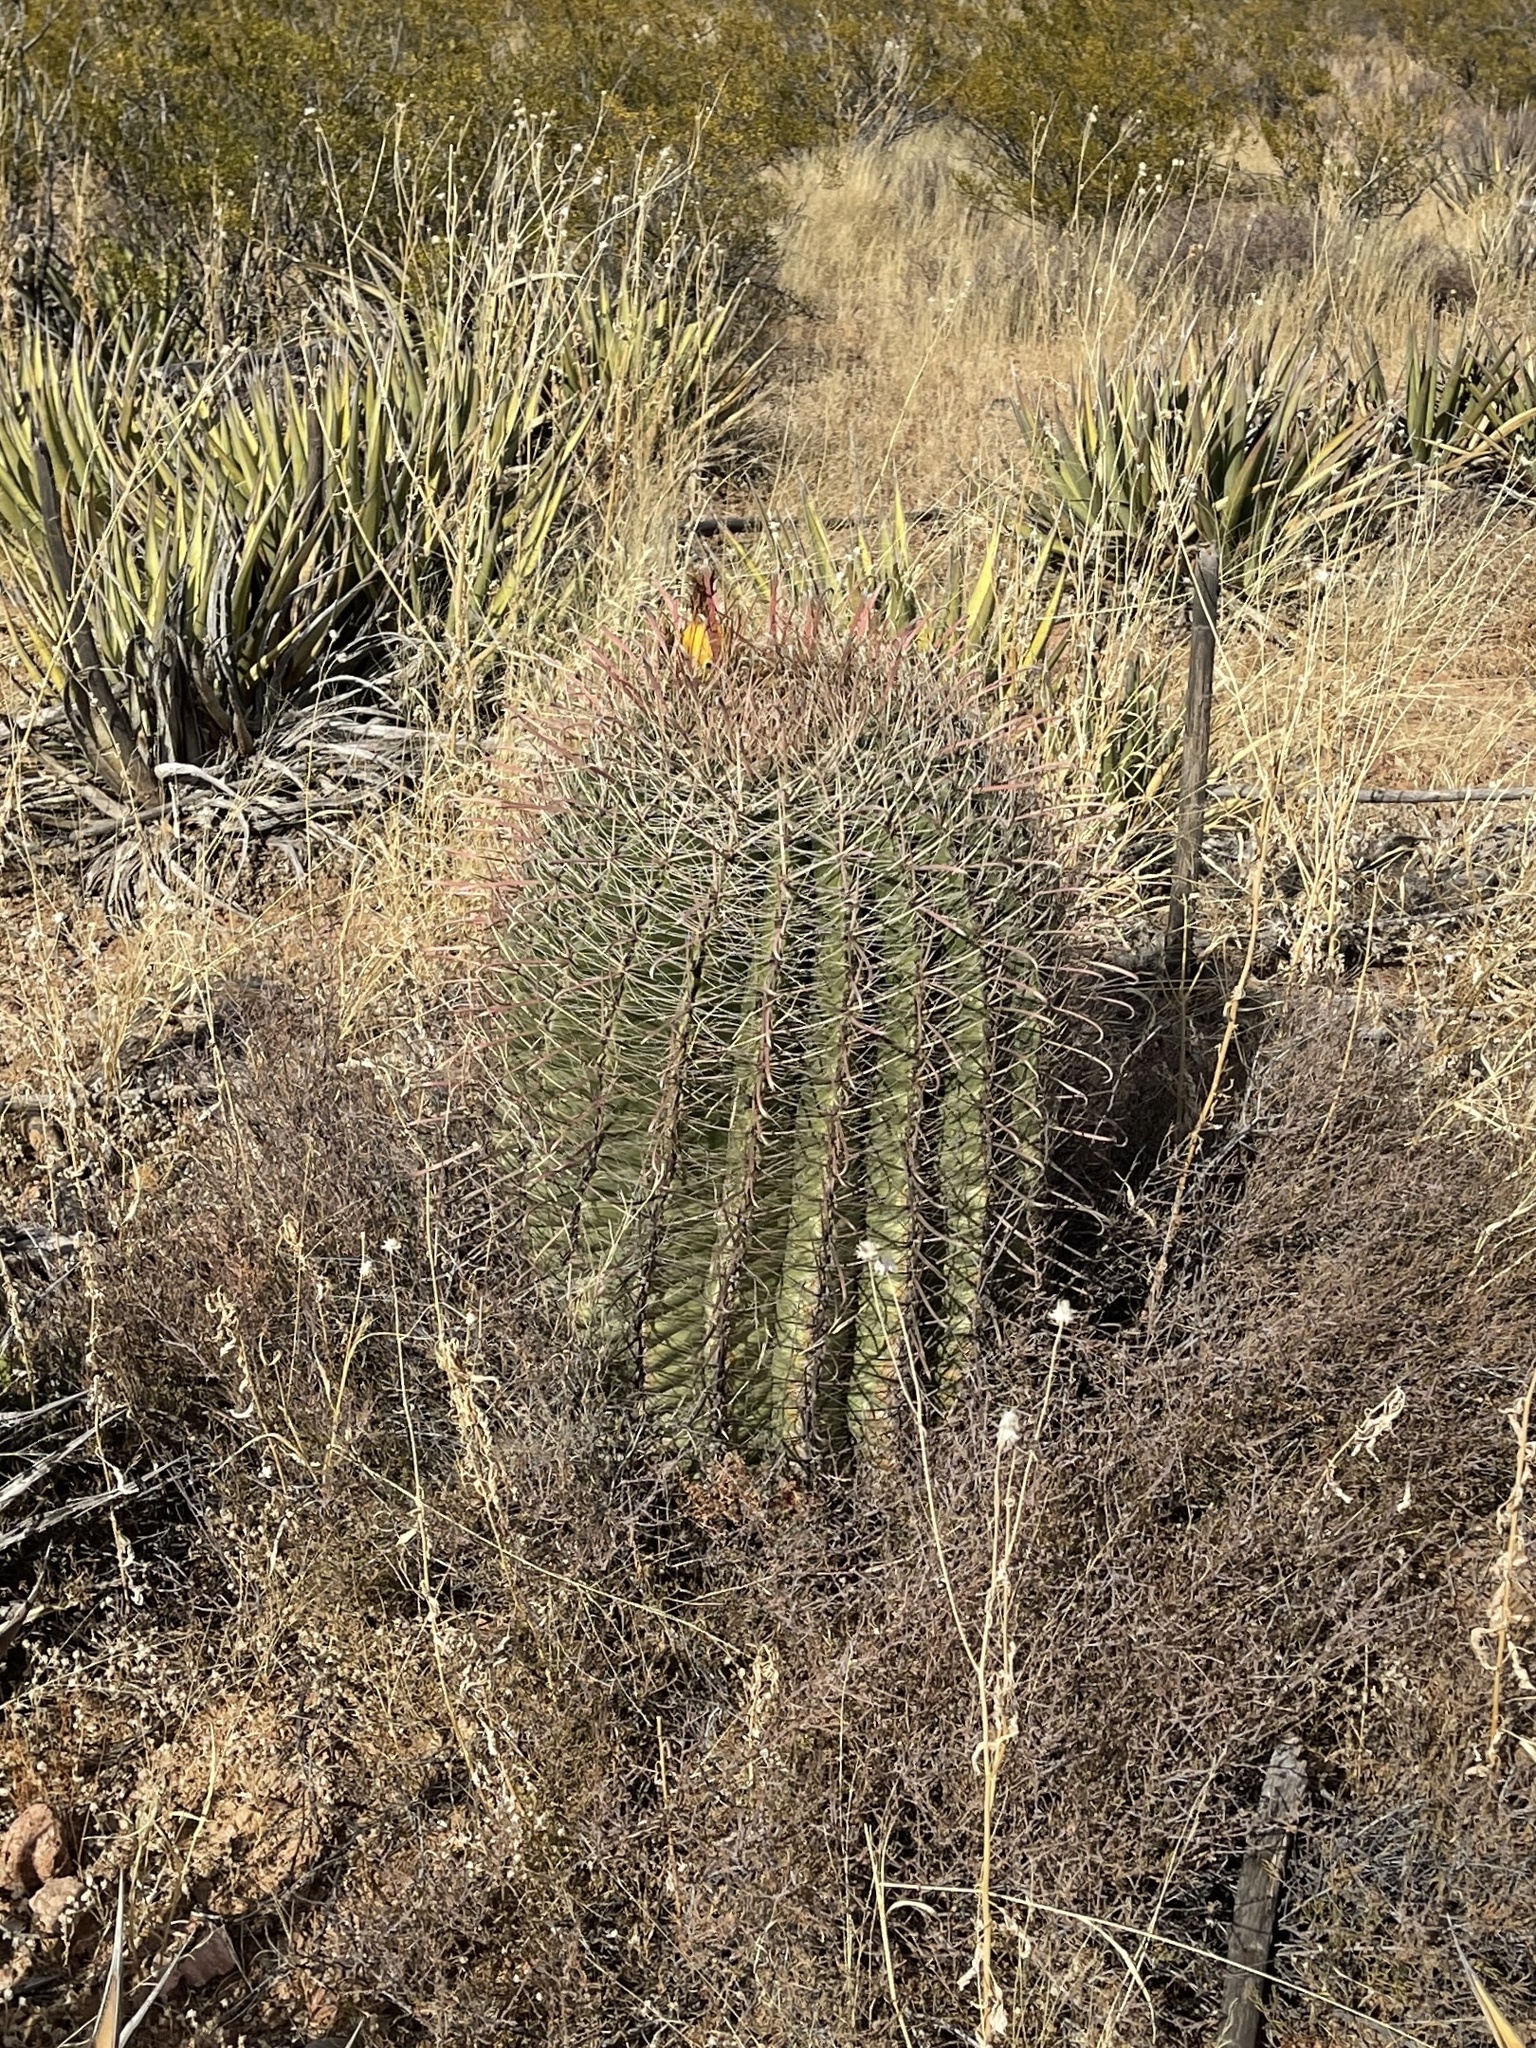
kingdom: Plantae
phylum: Tracheophyta
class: Magnoliopsida
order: Caryophyllales
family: Cactaceae
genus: Ferocactus
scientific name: Ferocactus wislizeni
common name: Candy barrel cactus
